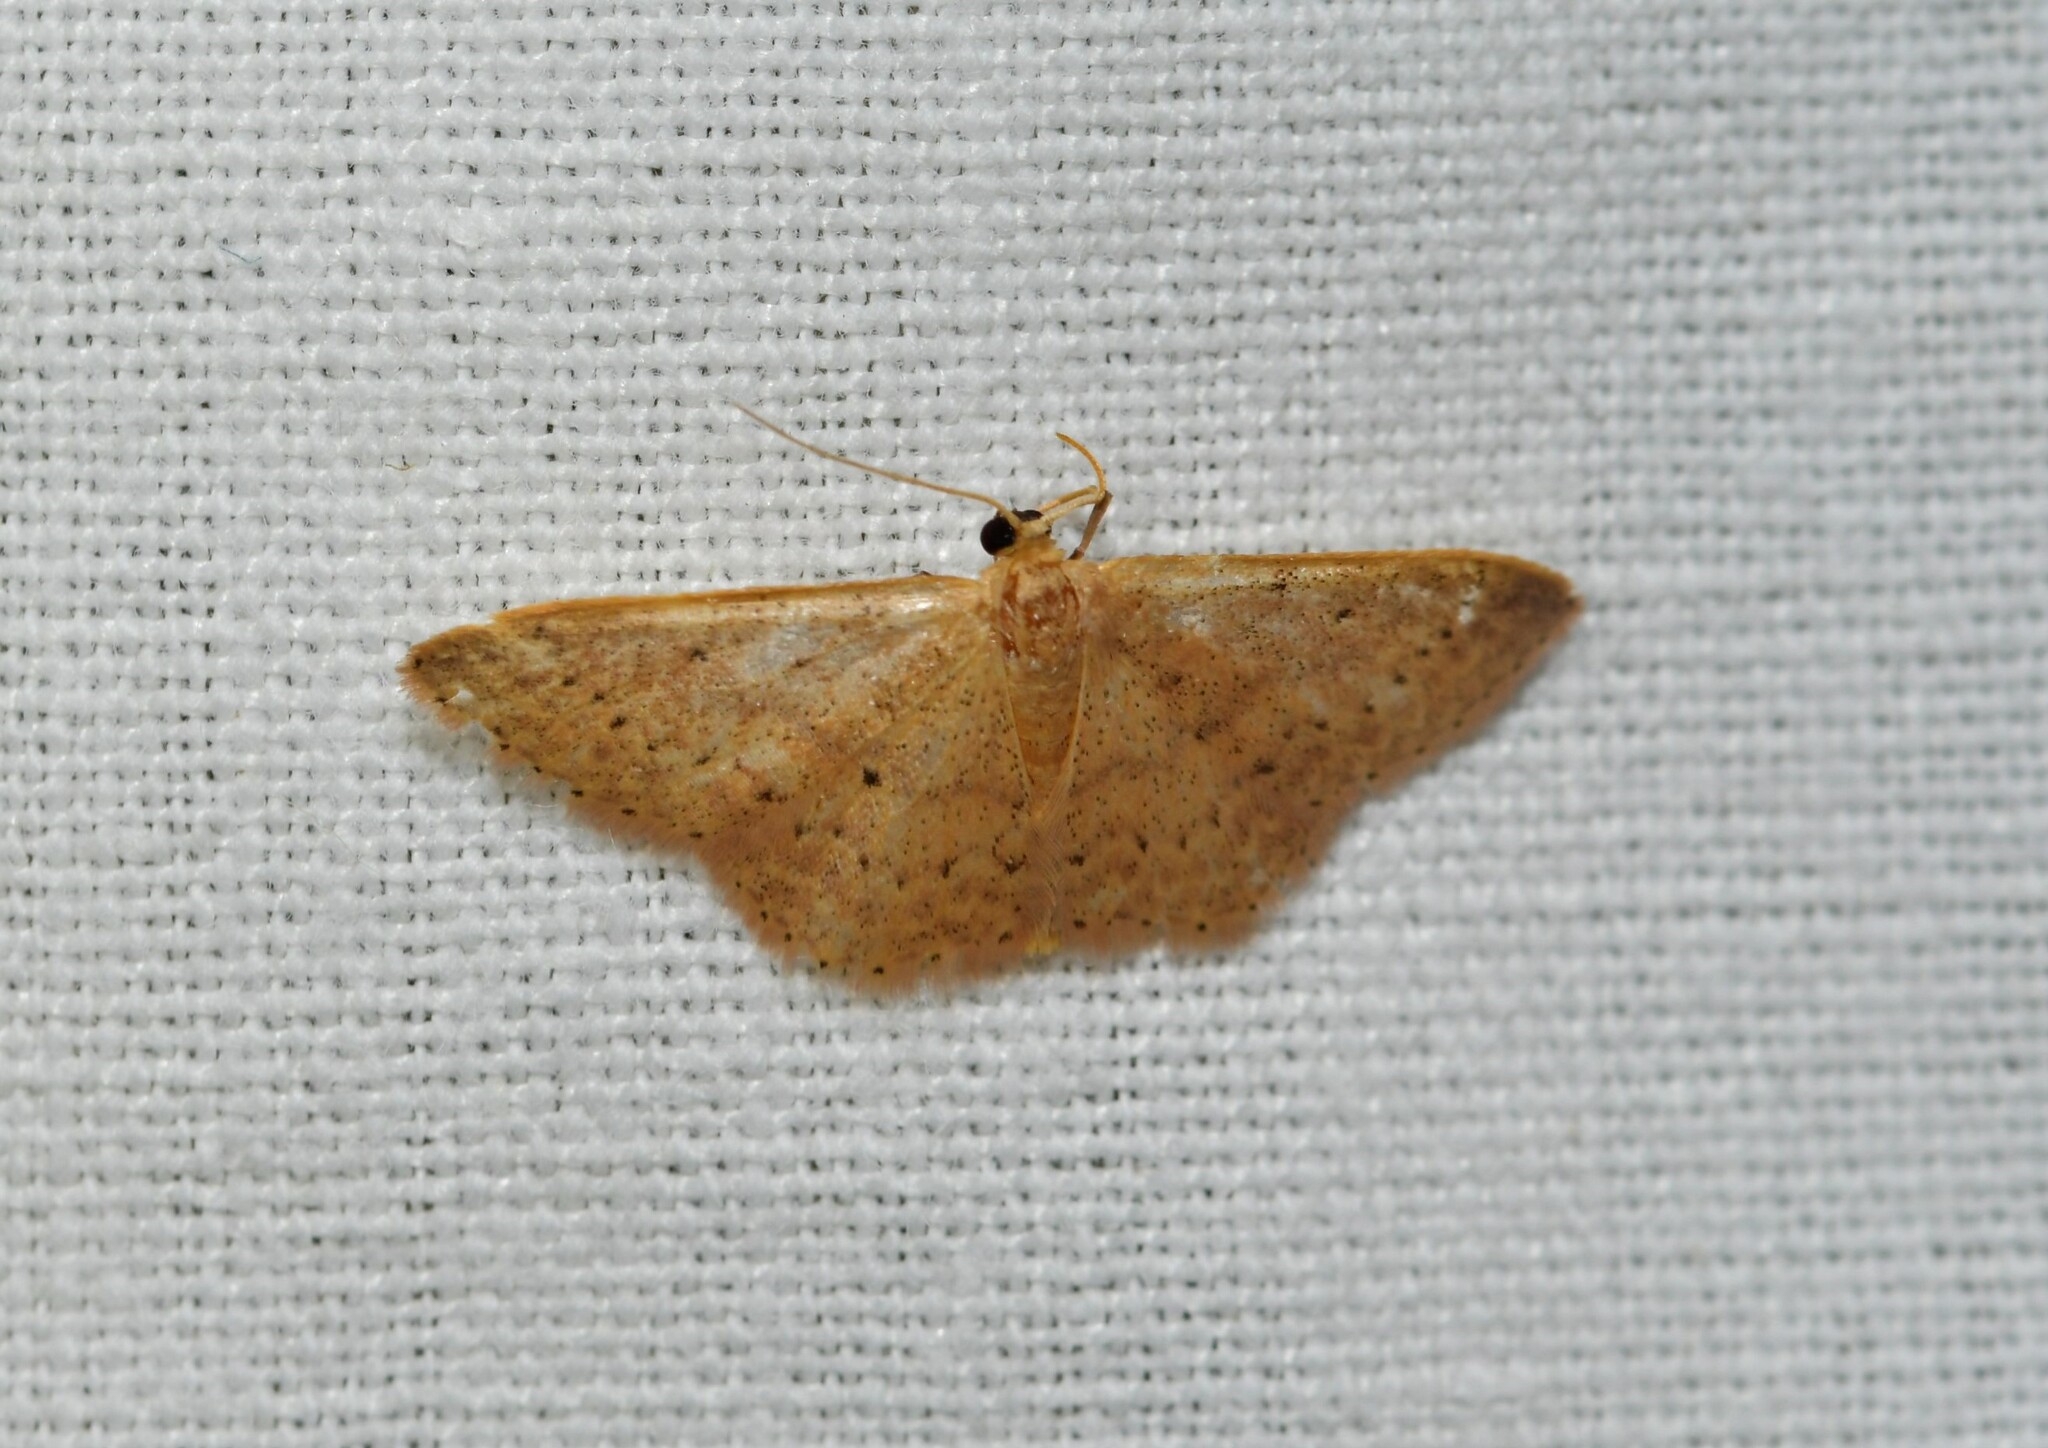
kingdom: Animalia
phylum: Arthropoda
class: Insecta
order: Lepidoptera
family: Geometridae
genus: Idaea
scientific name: Idaea eugeniata
